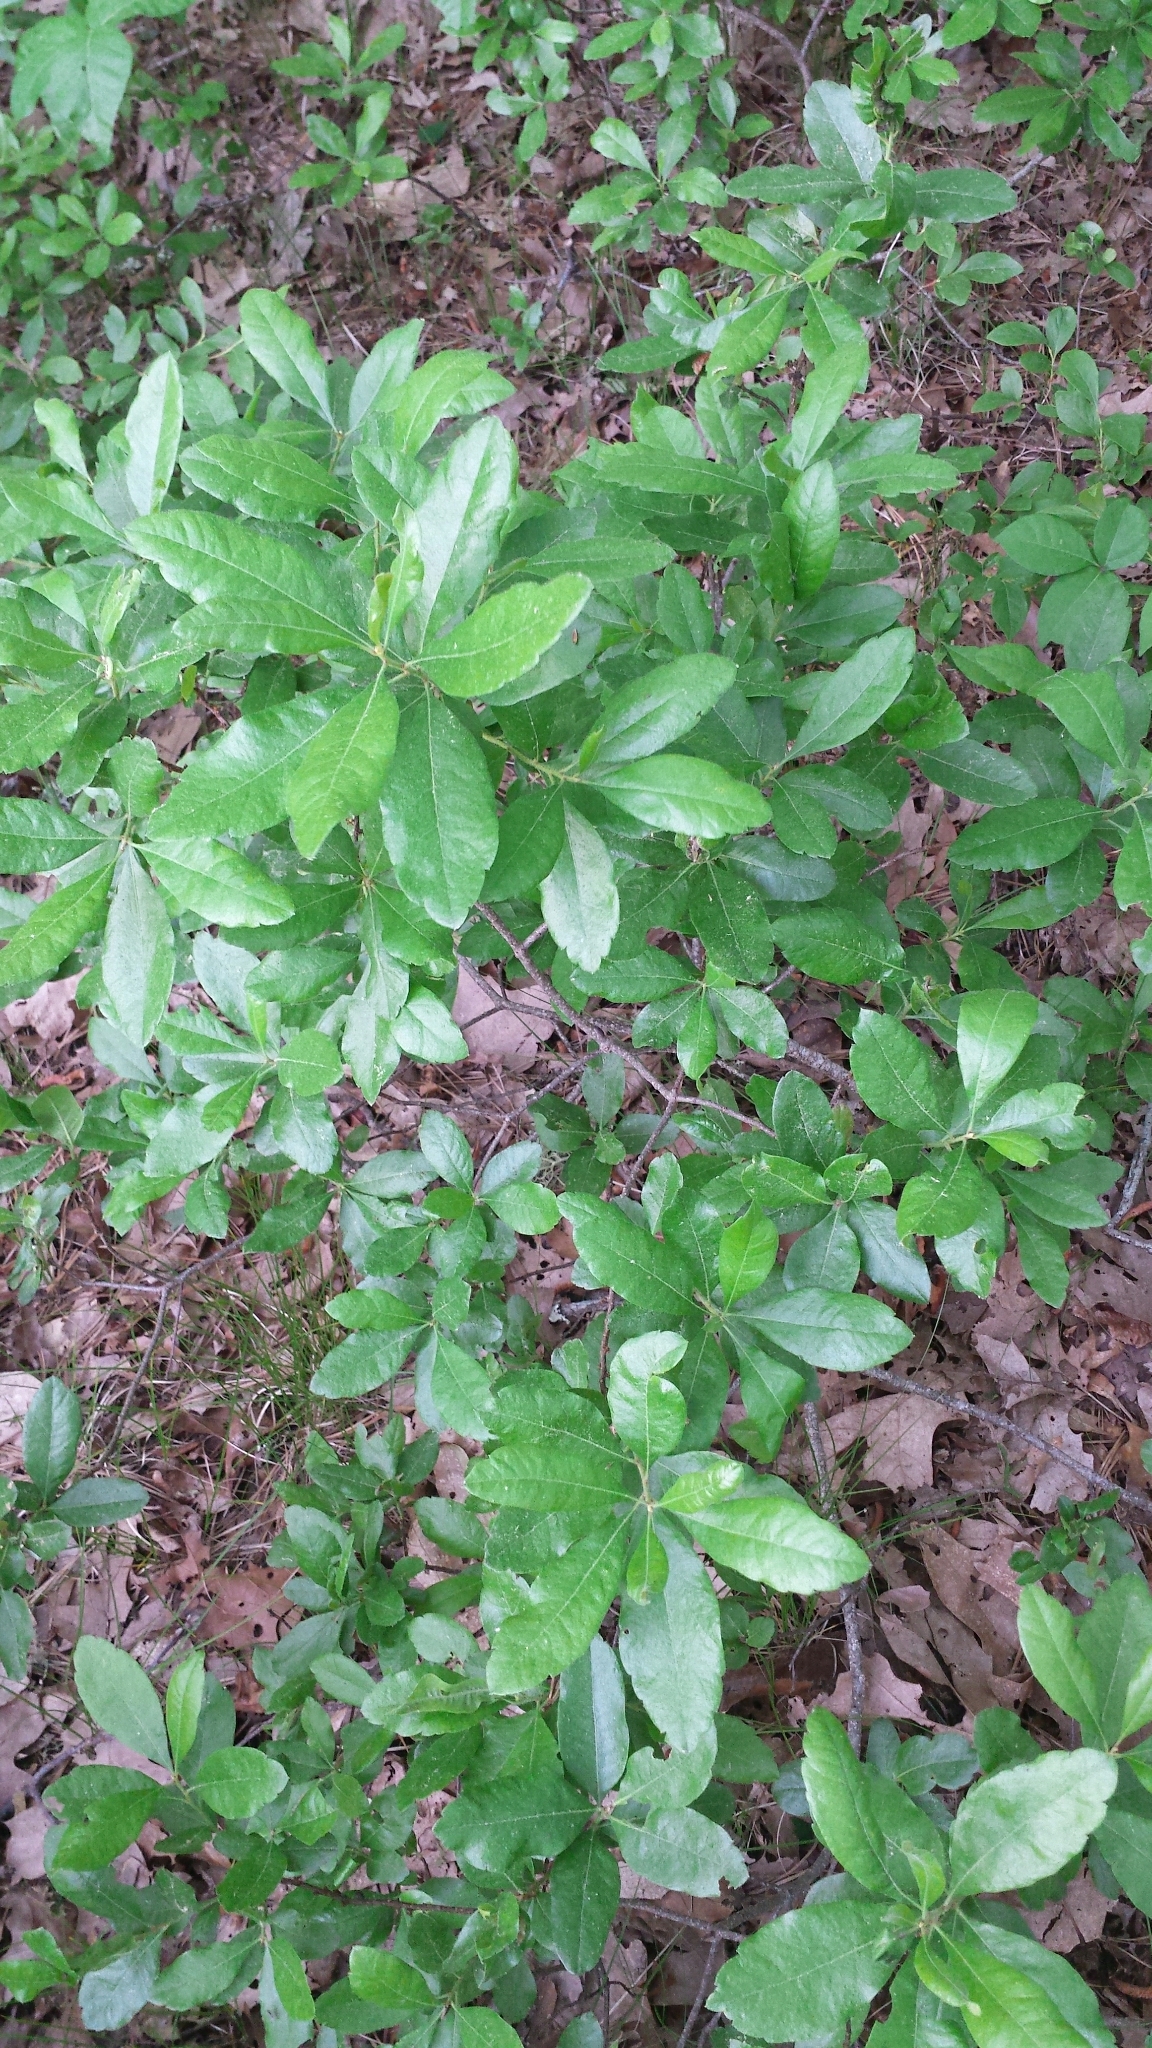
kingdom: Plantae
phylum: Tracheophyta
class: Magnoliopsida
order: Fagales
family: Myricaceae
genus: Morella
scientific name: Morella pensylvanica
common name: Northern bayberry
